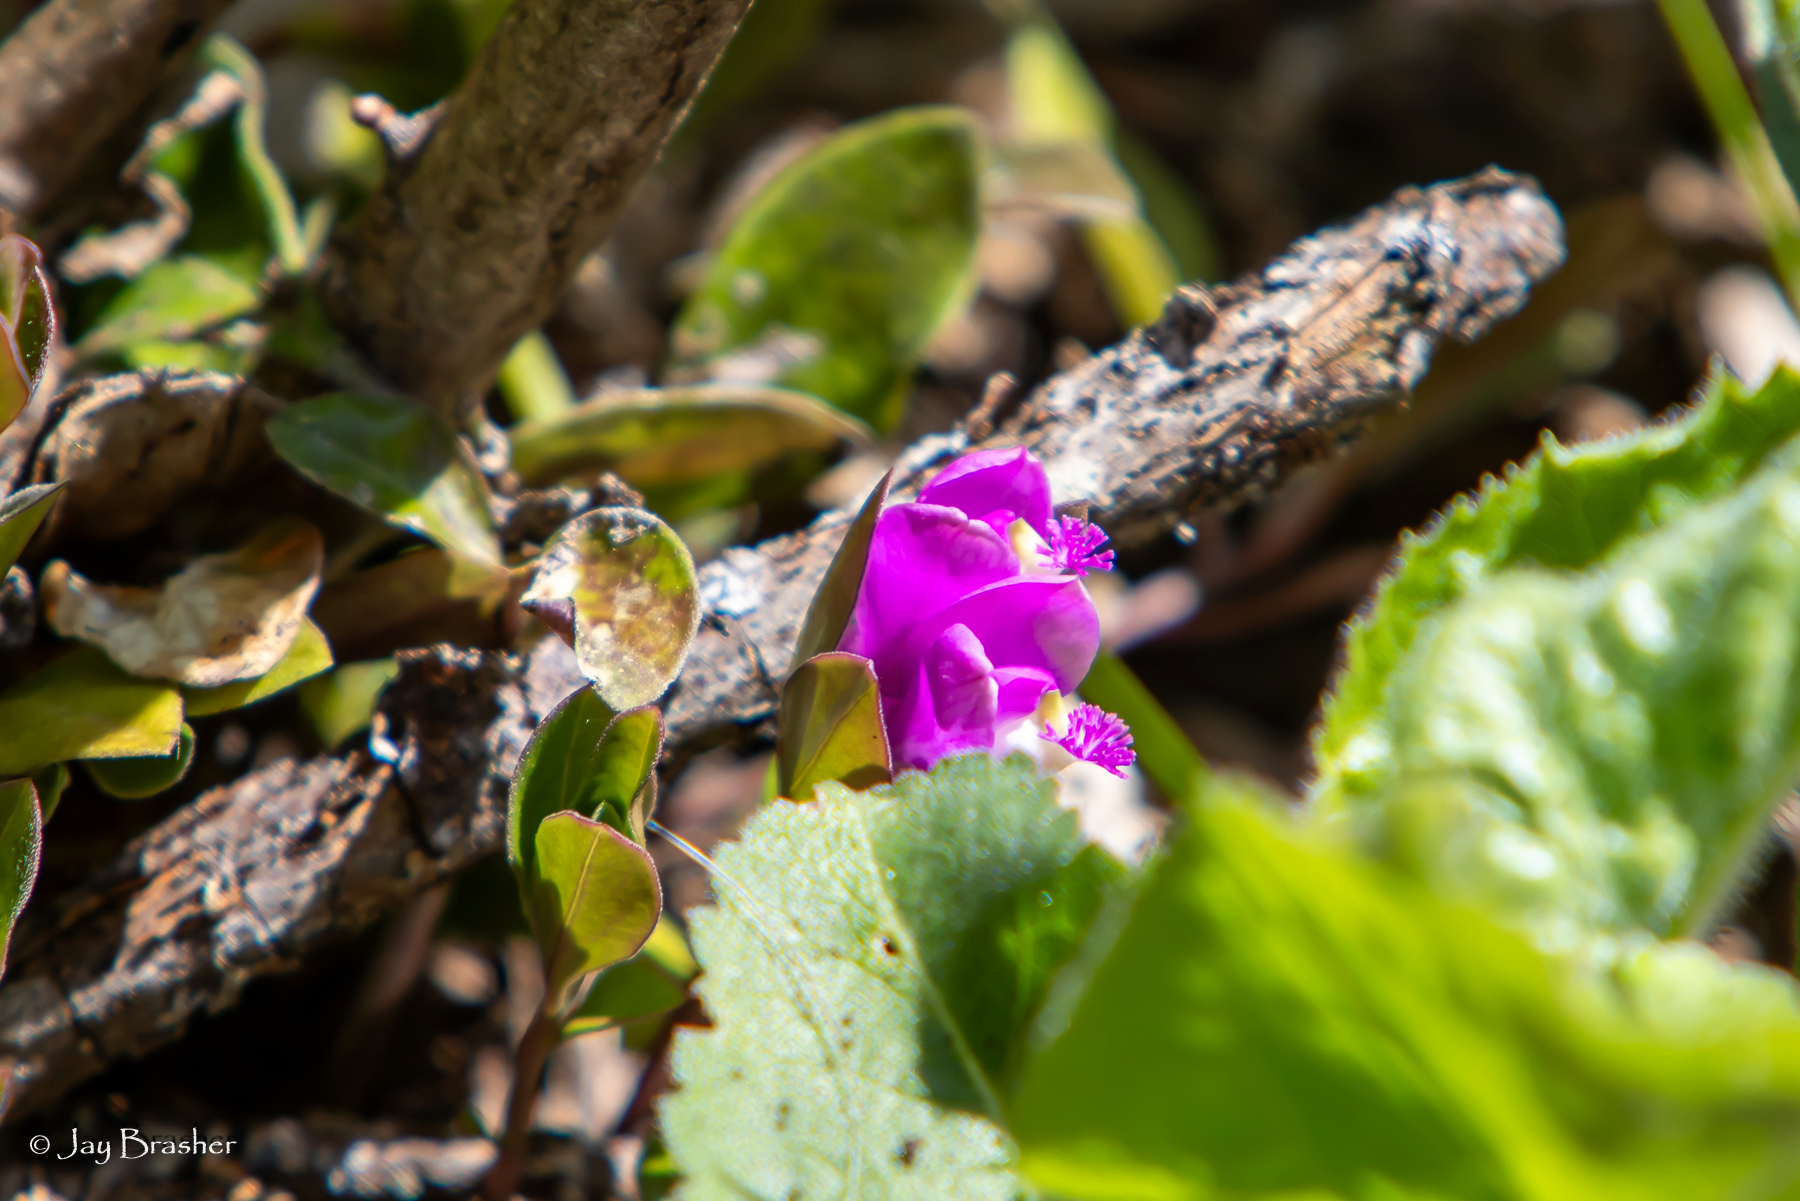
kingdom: Plantae
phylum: Tracheophyta
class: Magnoliopsida
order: Fabales
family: Polygalaceae
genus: Polygaloides
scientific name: Polygaloides paucifolia
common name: Bird-on-the-wing
